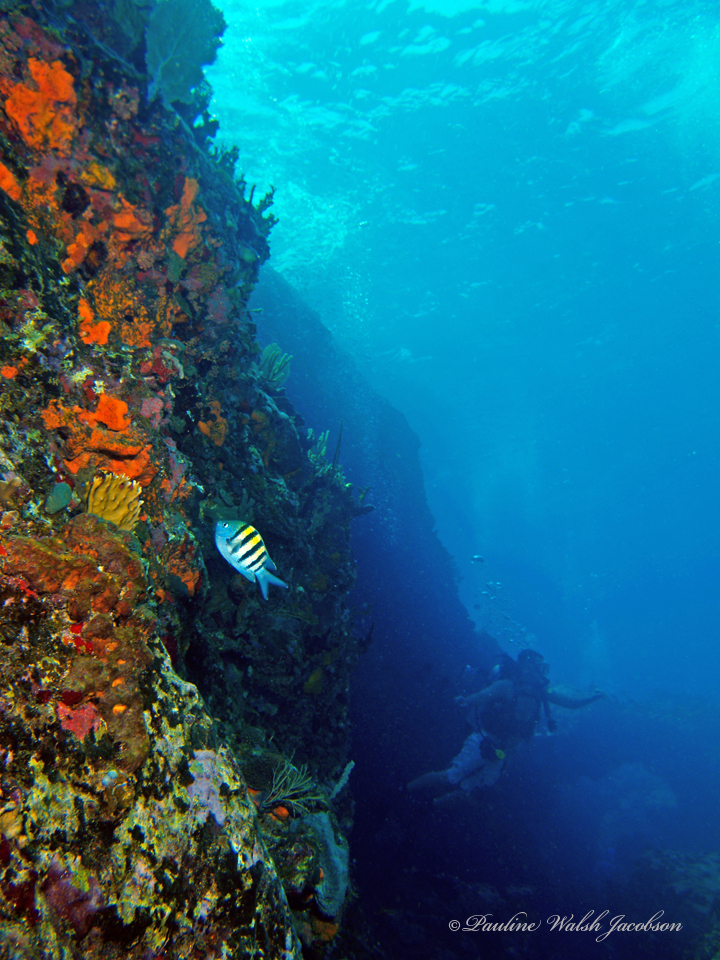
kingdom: Animalia
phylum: Chordata
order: Perciformes
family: Pomacentridae
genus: Abudefduf
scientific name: Abudefduf saxatilis
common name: Sergeant major
